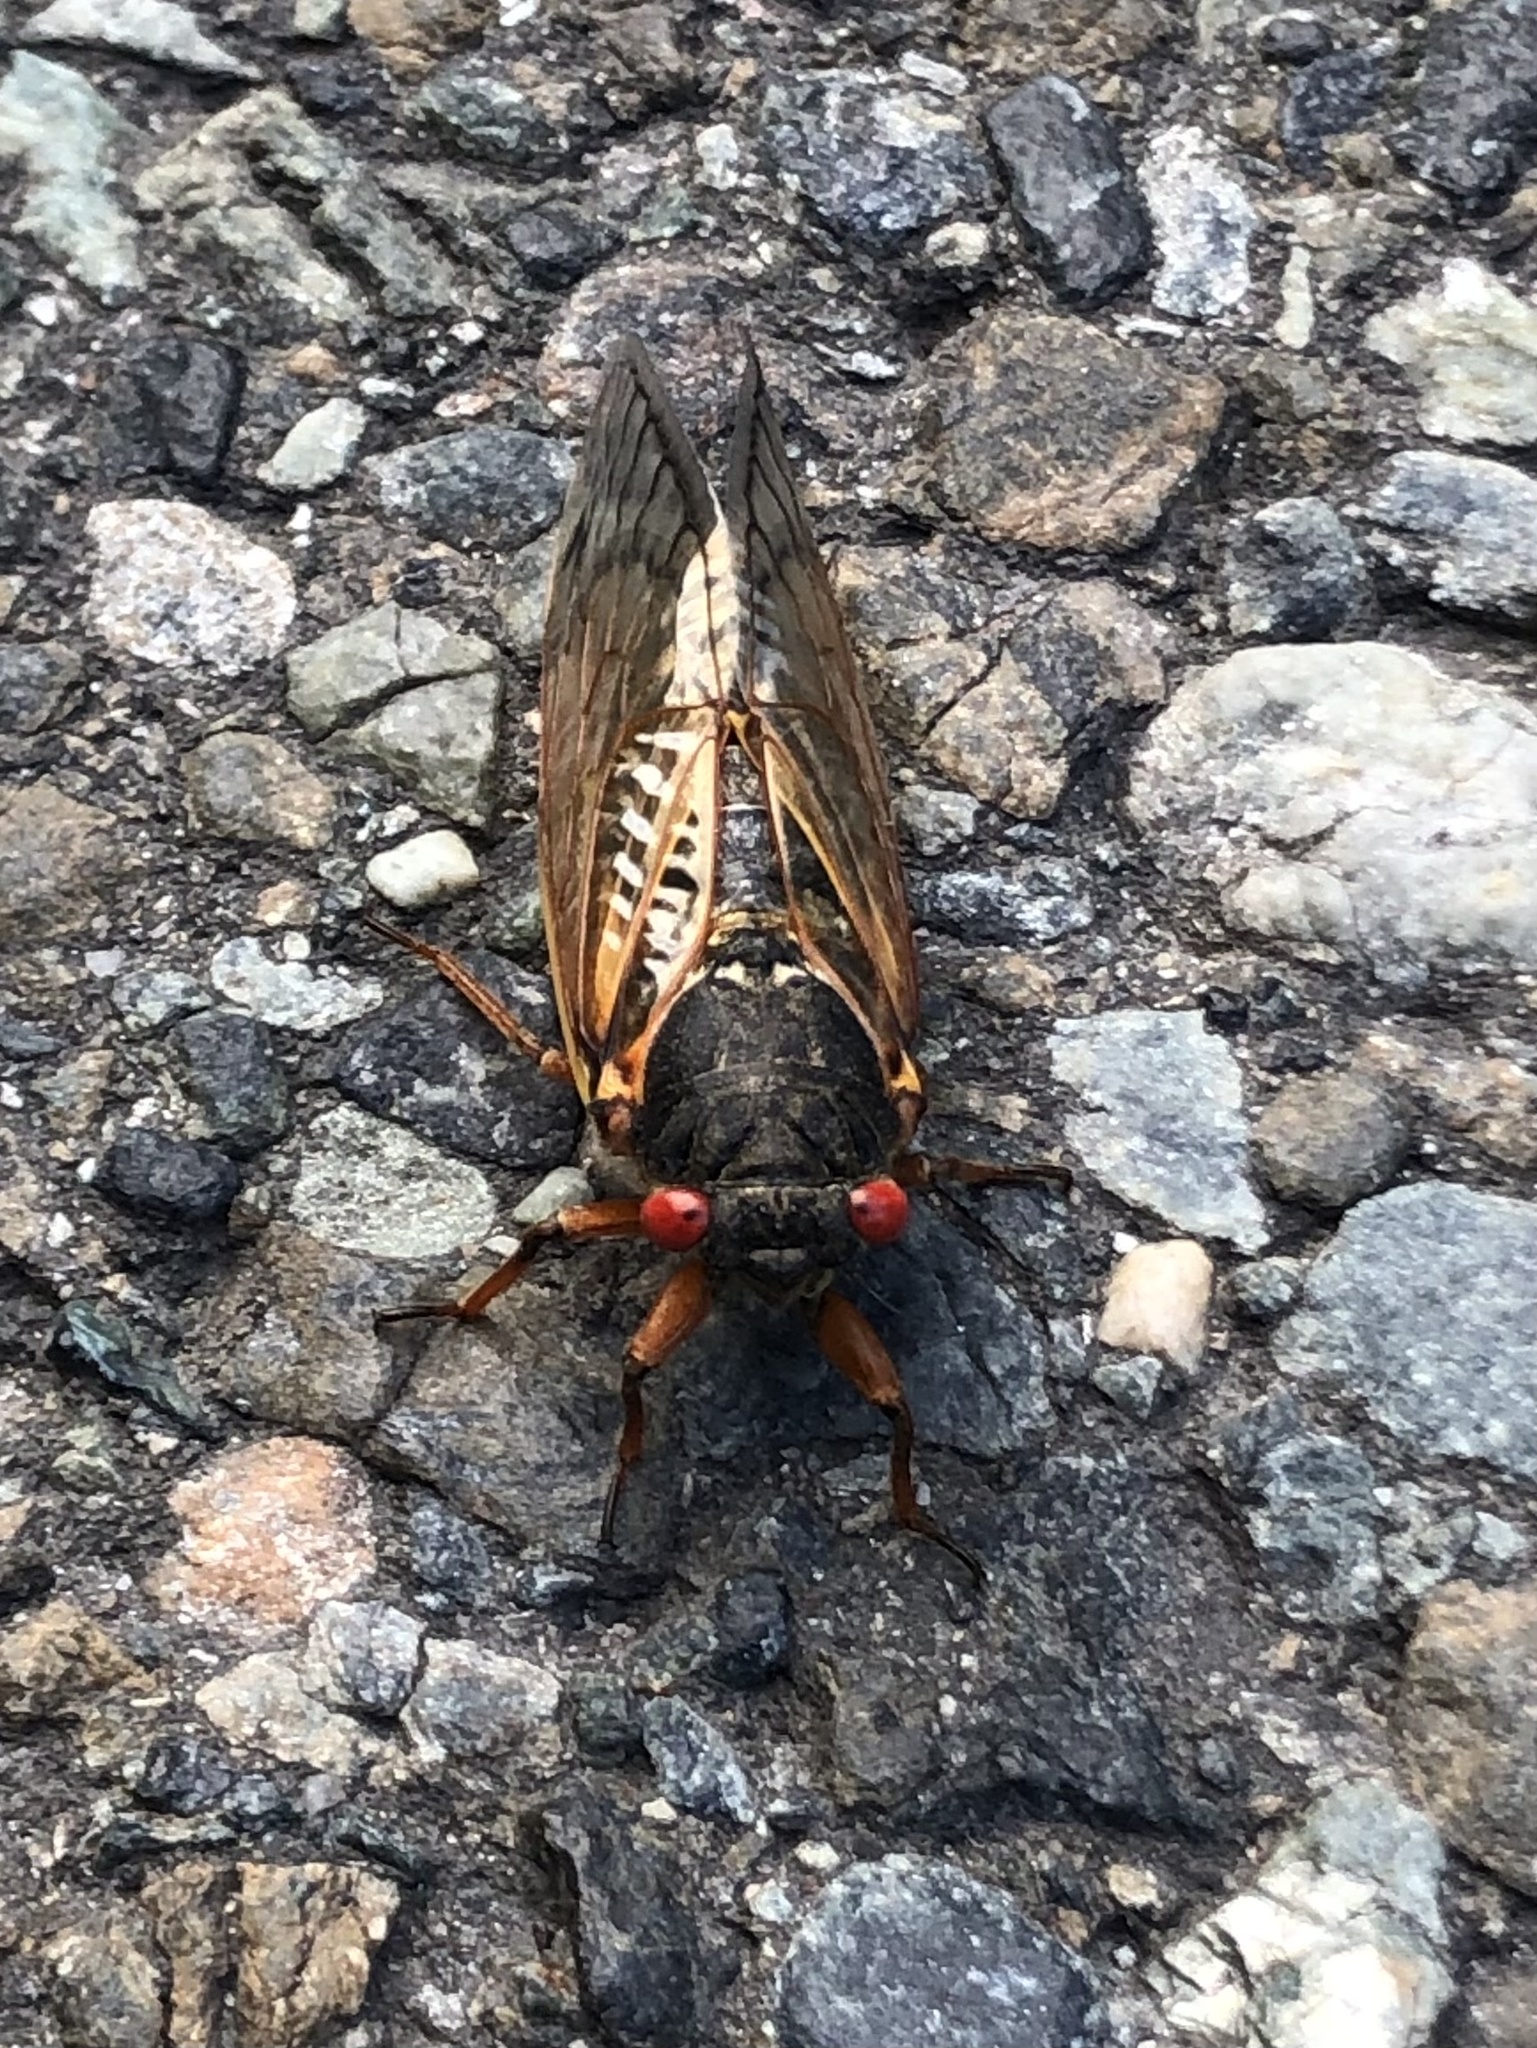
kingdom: Animalia
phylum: Arthropoda
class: Insecta
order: Hemiptera
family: Cicadidae
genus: Magicicada
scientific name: Magicicada
